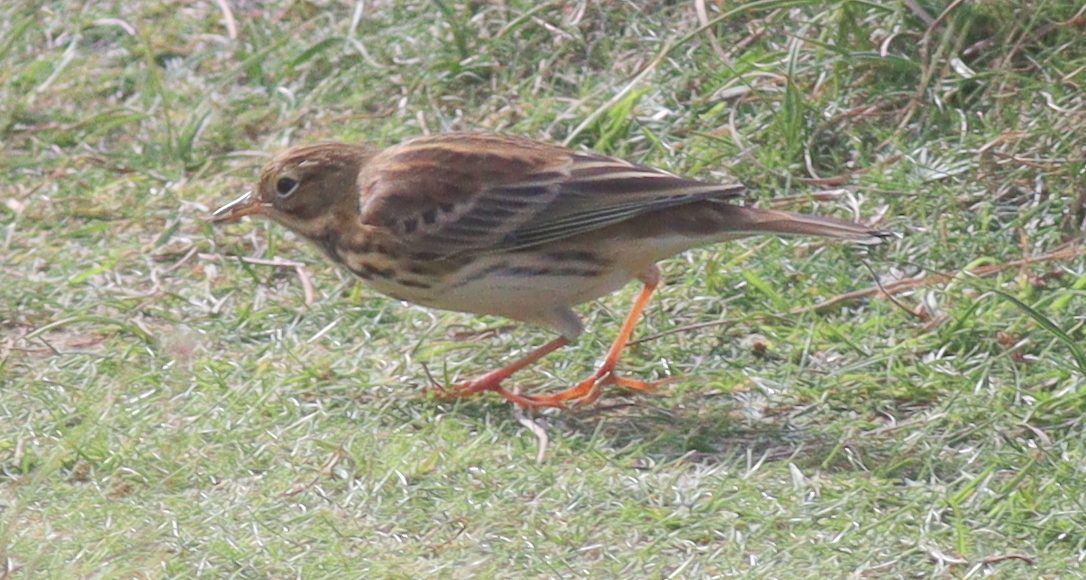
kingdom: Animalia
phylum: Chordata
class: Aves
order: Passeriformes
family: Motacillidae
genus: Anthus
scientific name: Anthus pratensis
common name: Meadow pipit
